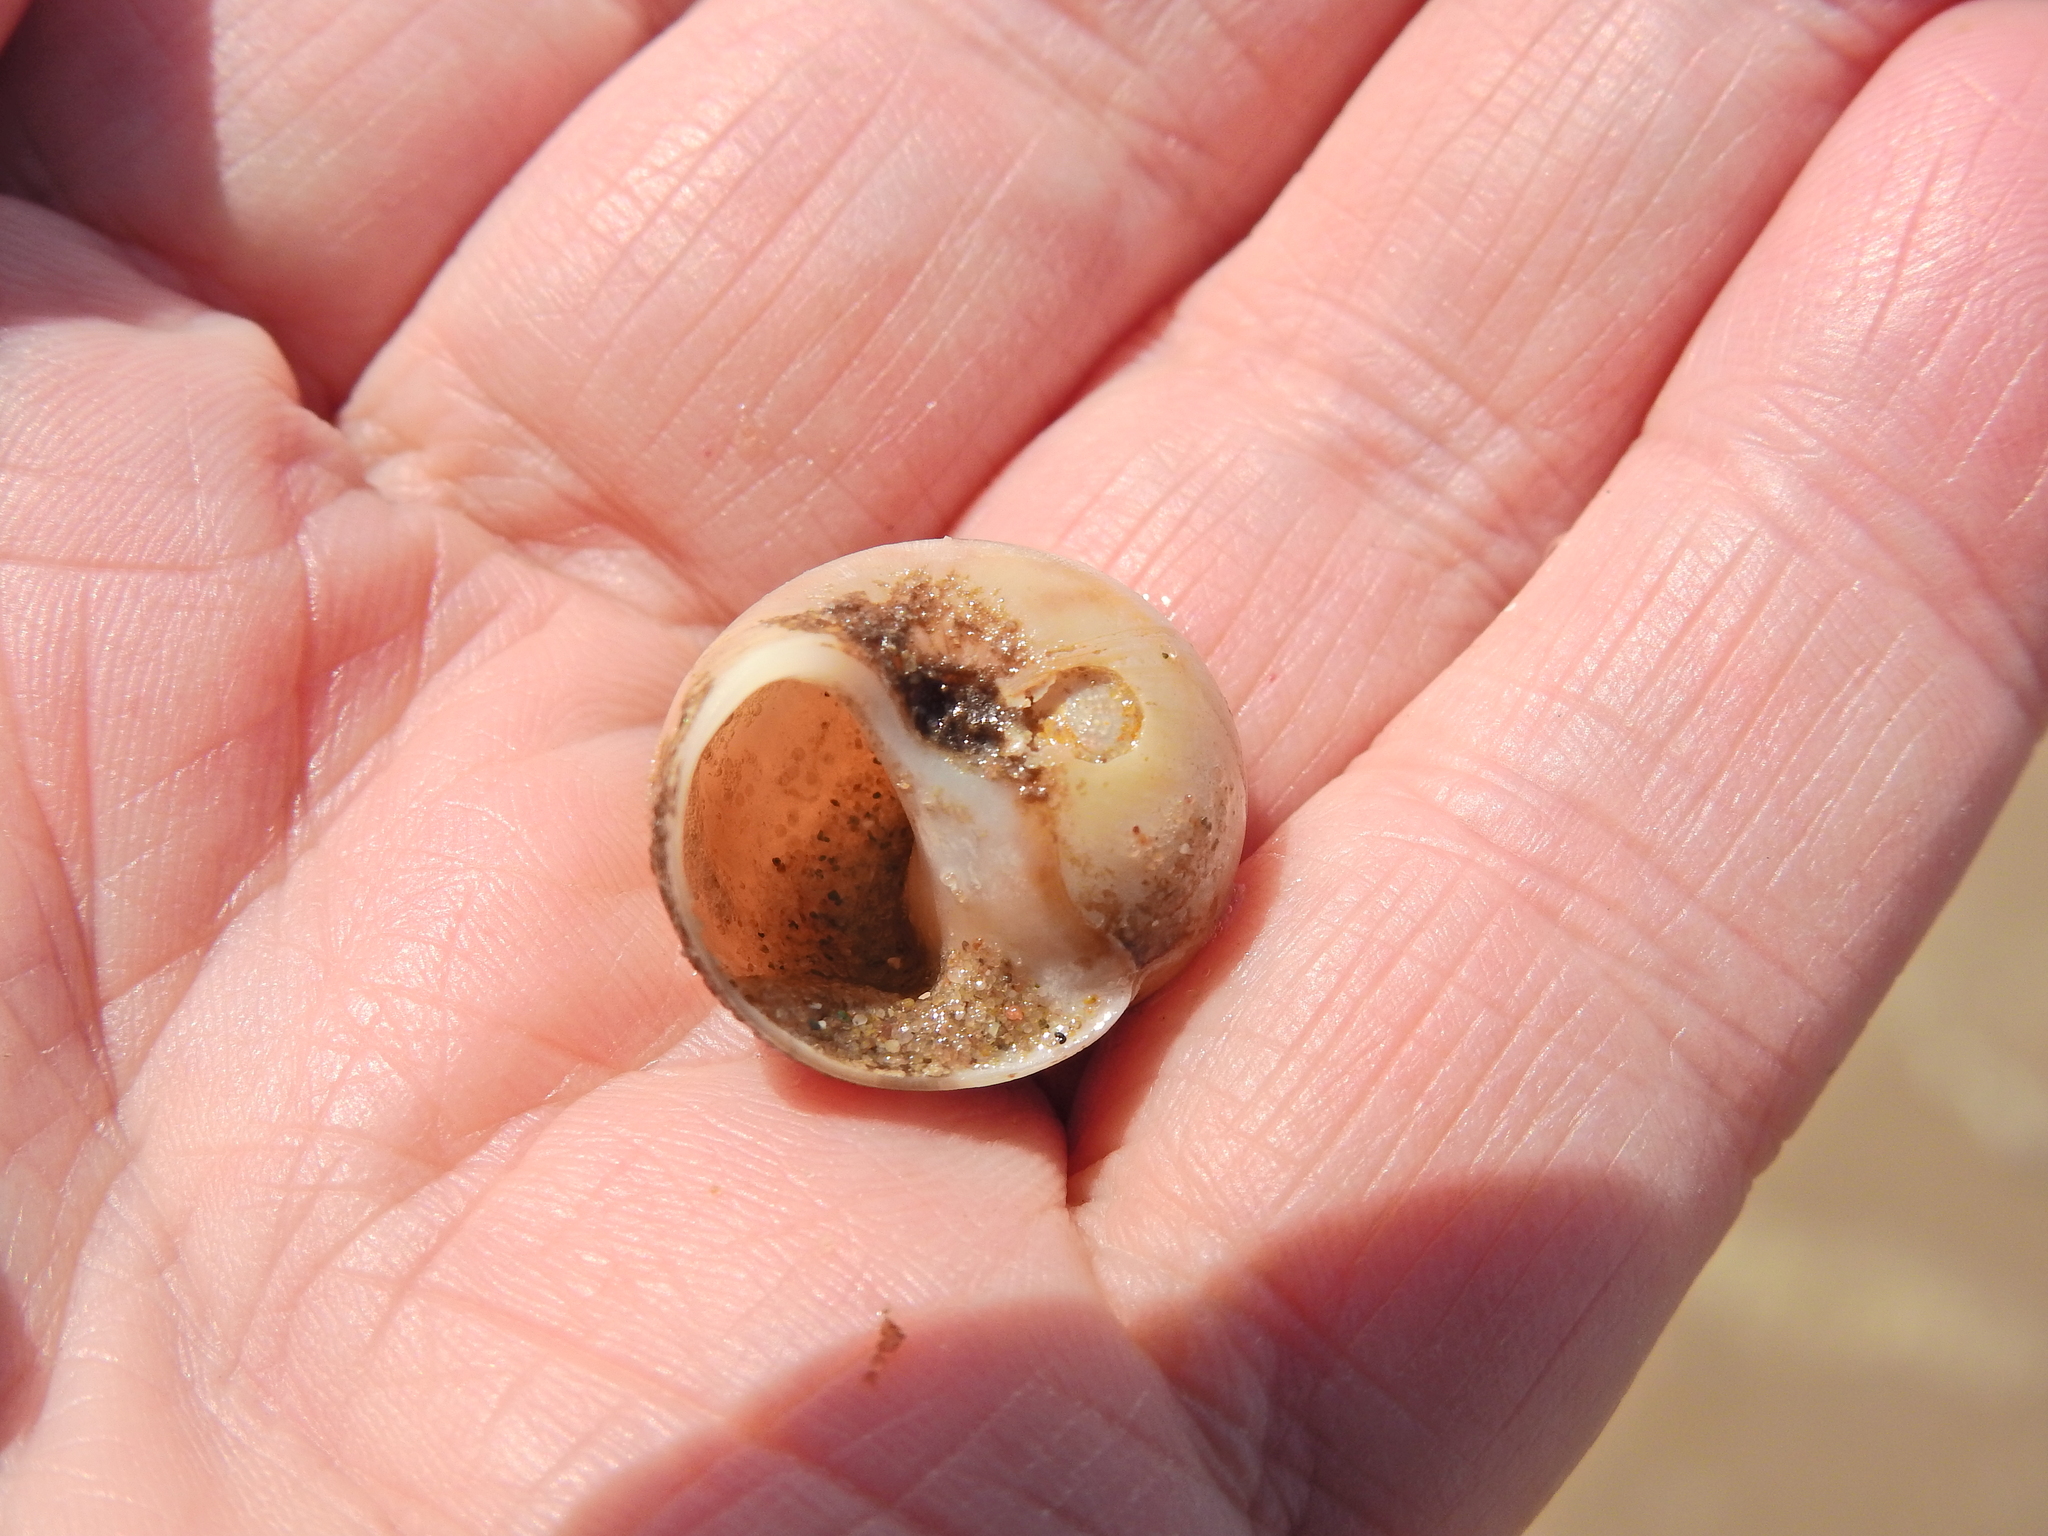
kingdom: Animalia
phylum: Mollusca
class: Gastropoda
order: Littorinimorpha
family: Naticidae
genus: Euspira
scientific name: Euspira catena
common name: Necklace shell
